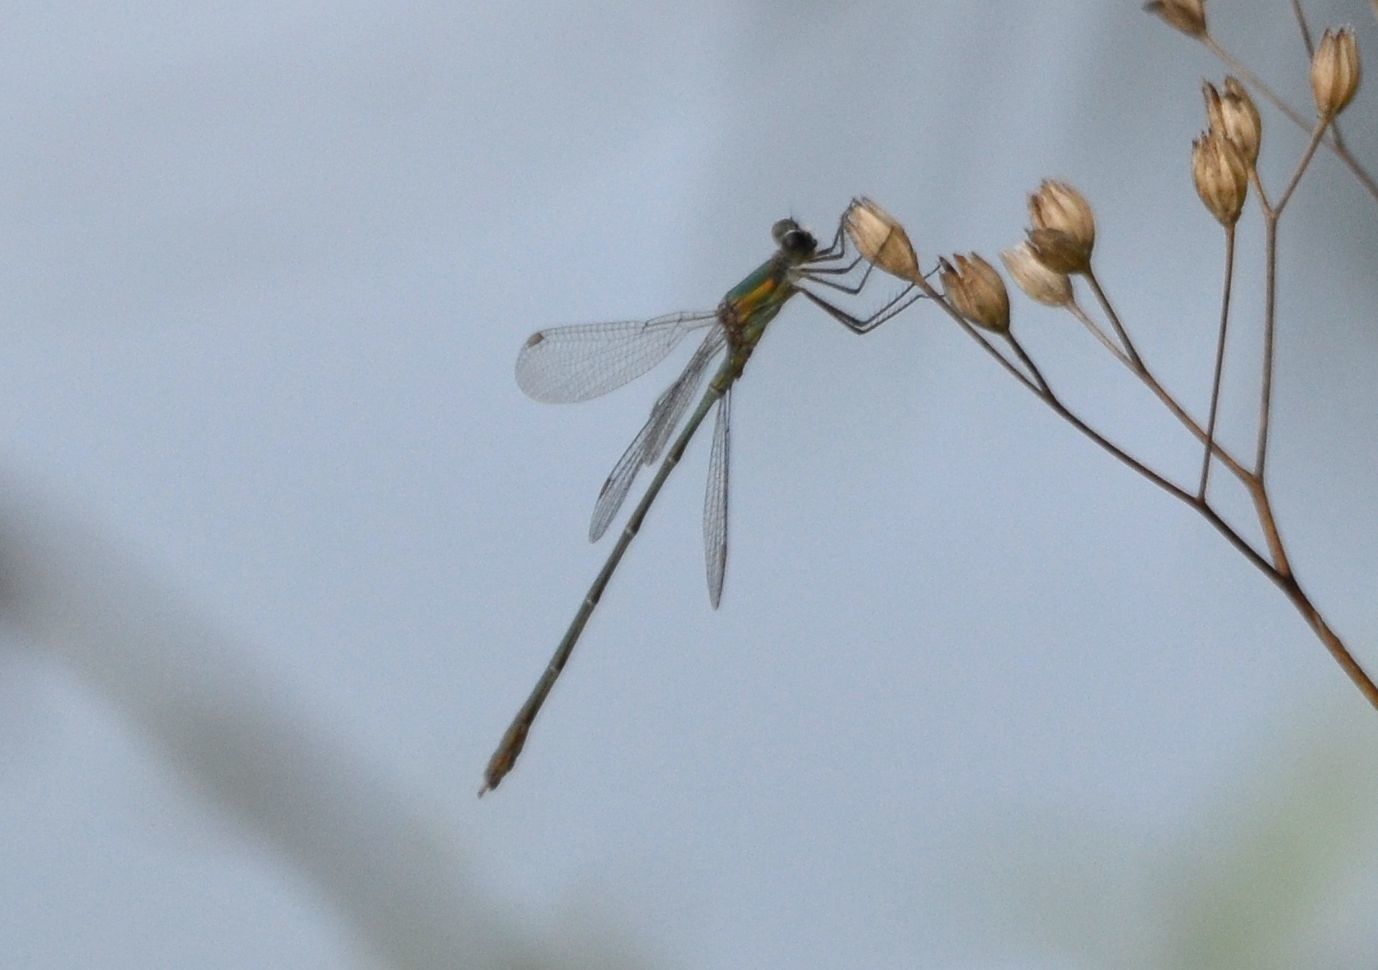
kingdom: Animalia
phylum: Arthropoda
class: Insecta
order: Odonata
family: Lestidae
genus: Chalcolestes
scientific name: Chalcolestes viridis
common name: Green emerald damselfly
